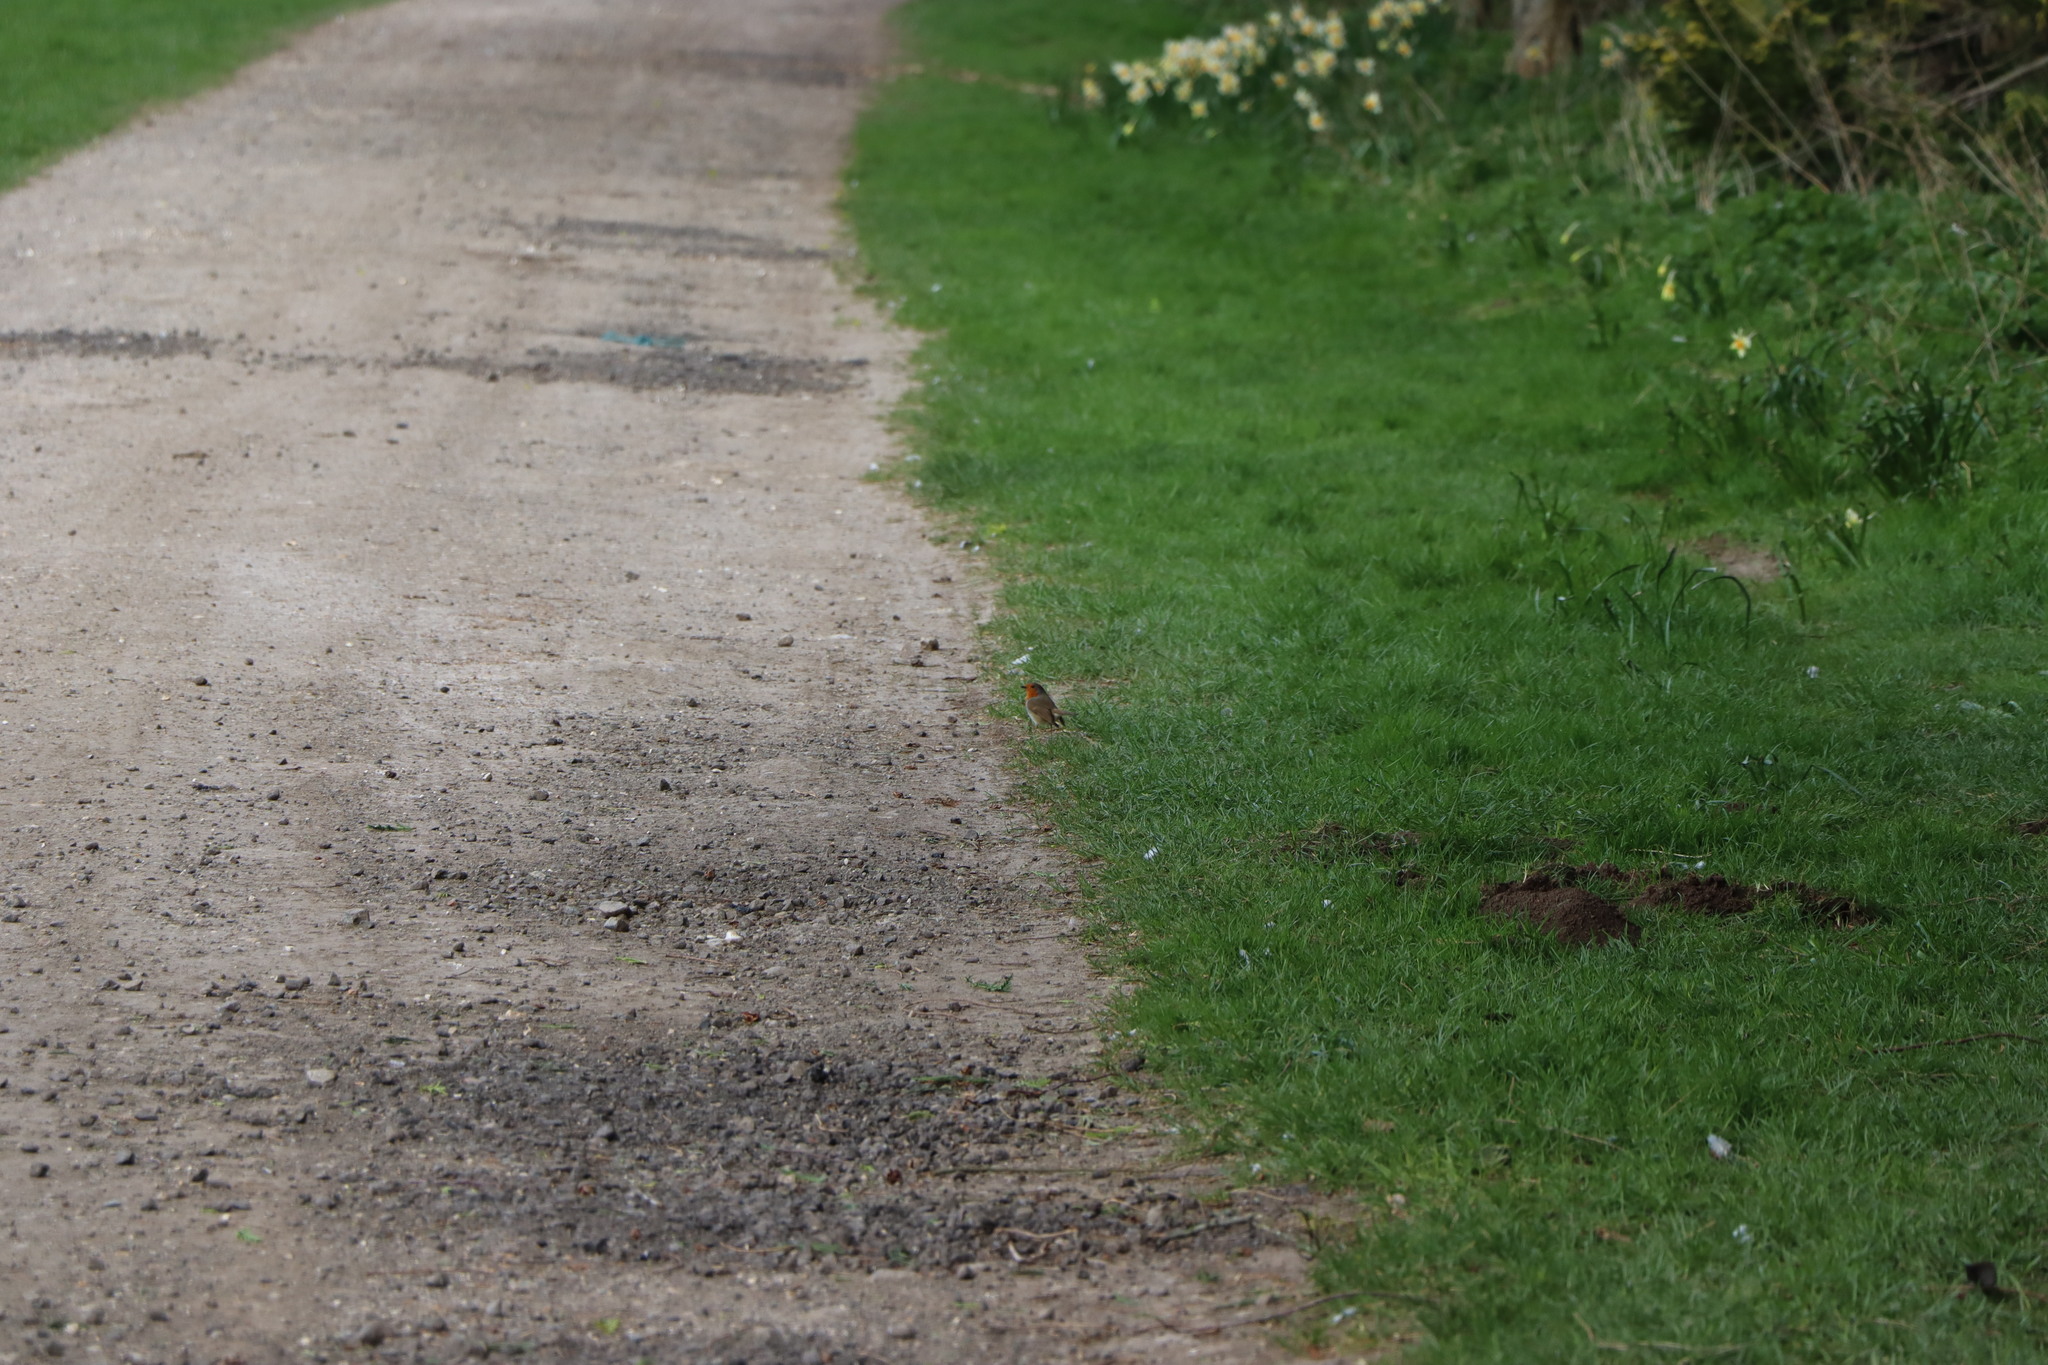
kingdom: Animalia
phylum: Chordata
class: Aves
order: Passeriformes
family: Muscicapidae
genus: Erithacus
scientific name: Erithacus rubecula
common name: European robin
